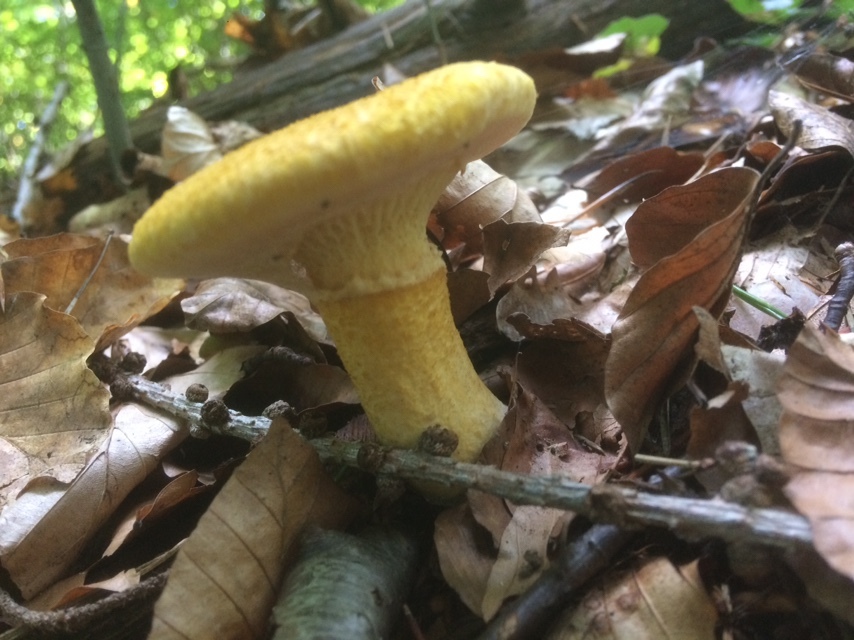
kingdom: Fungi
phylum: Basidiomycota
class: Agaricomycetes
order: Boletales
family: Suillaceae
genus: Suillus
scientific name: Suillus cavipes
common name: Hollow bolete
